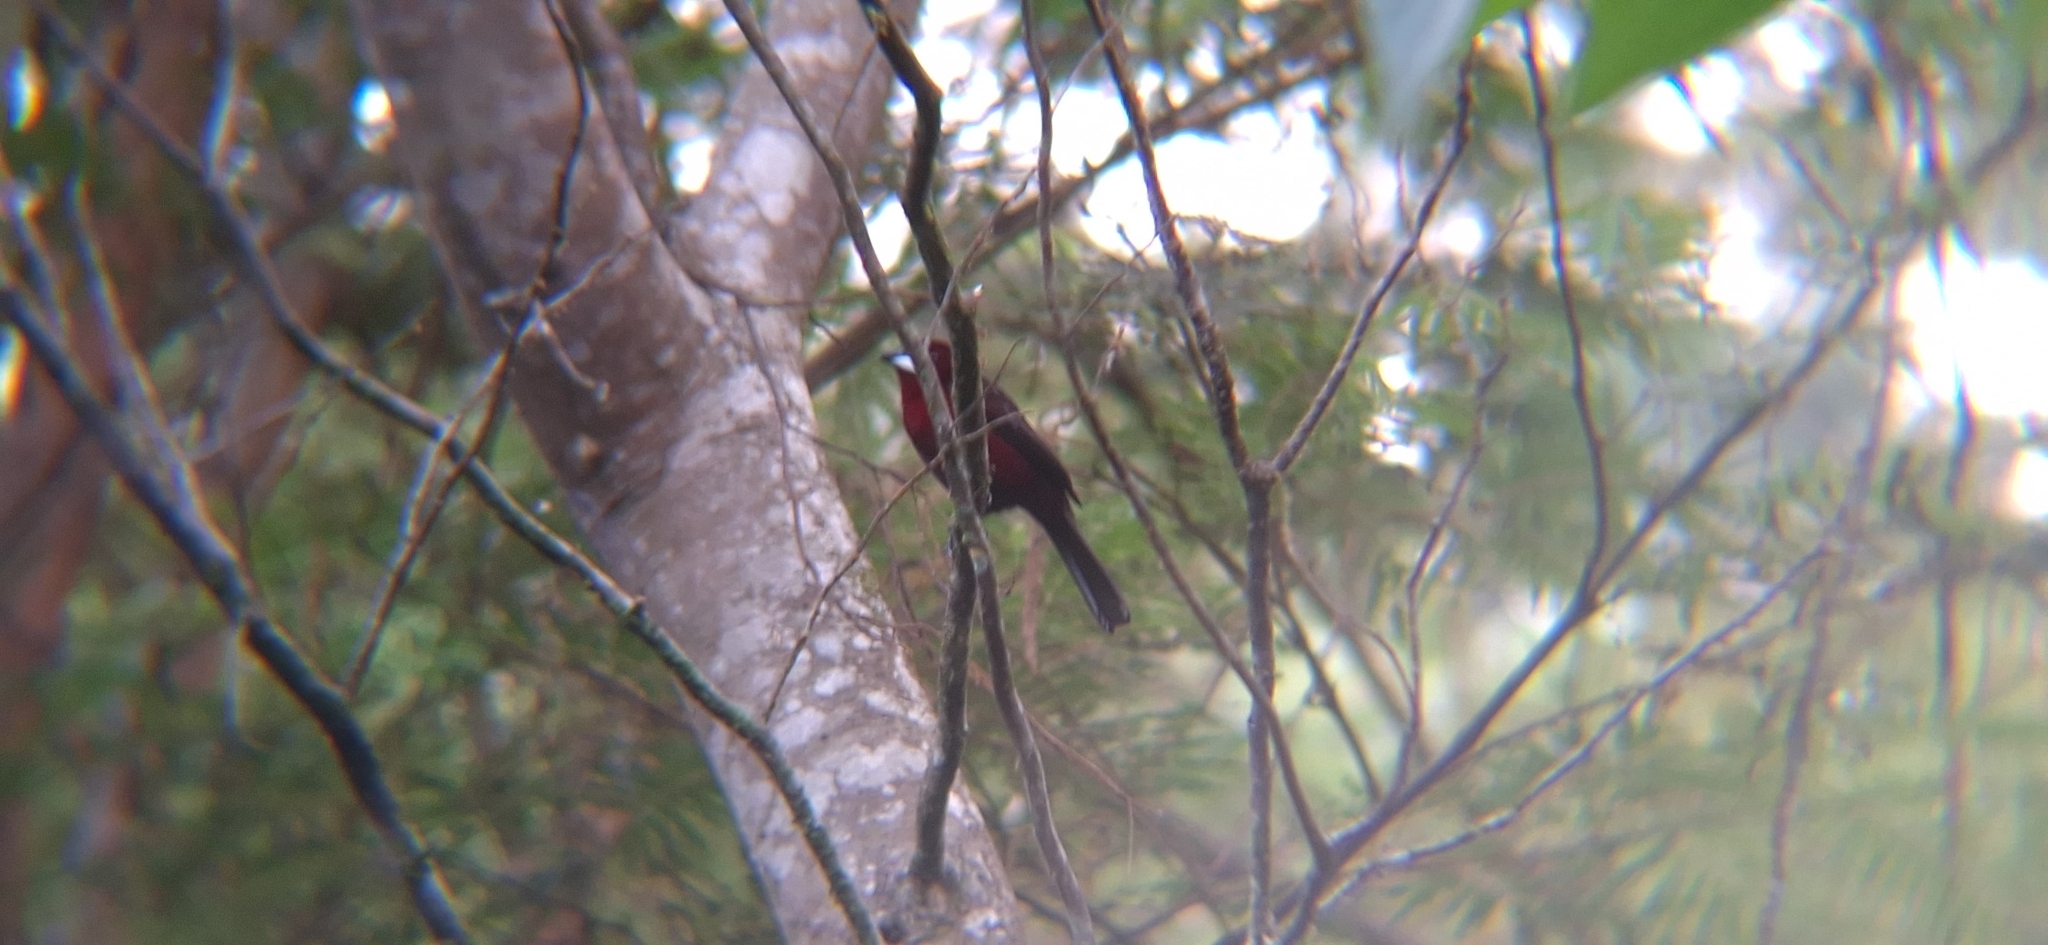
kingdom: Animalia
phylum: Chordata
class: Aves
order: Passeriformes
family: Thraupidae
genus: Ramphocelus
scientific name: Ramphocelus carbo
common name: Silver-beaked tanager
